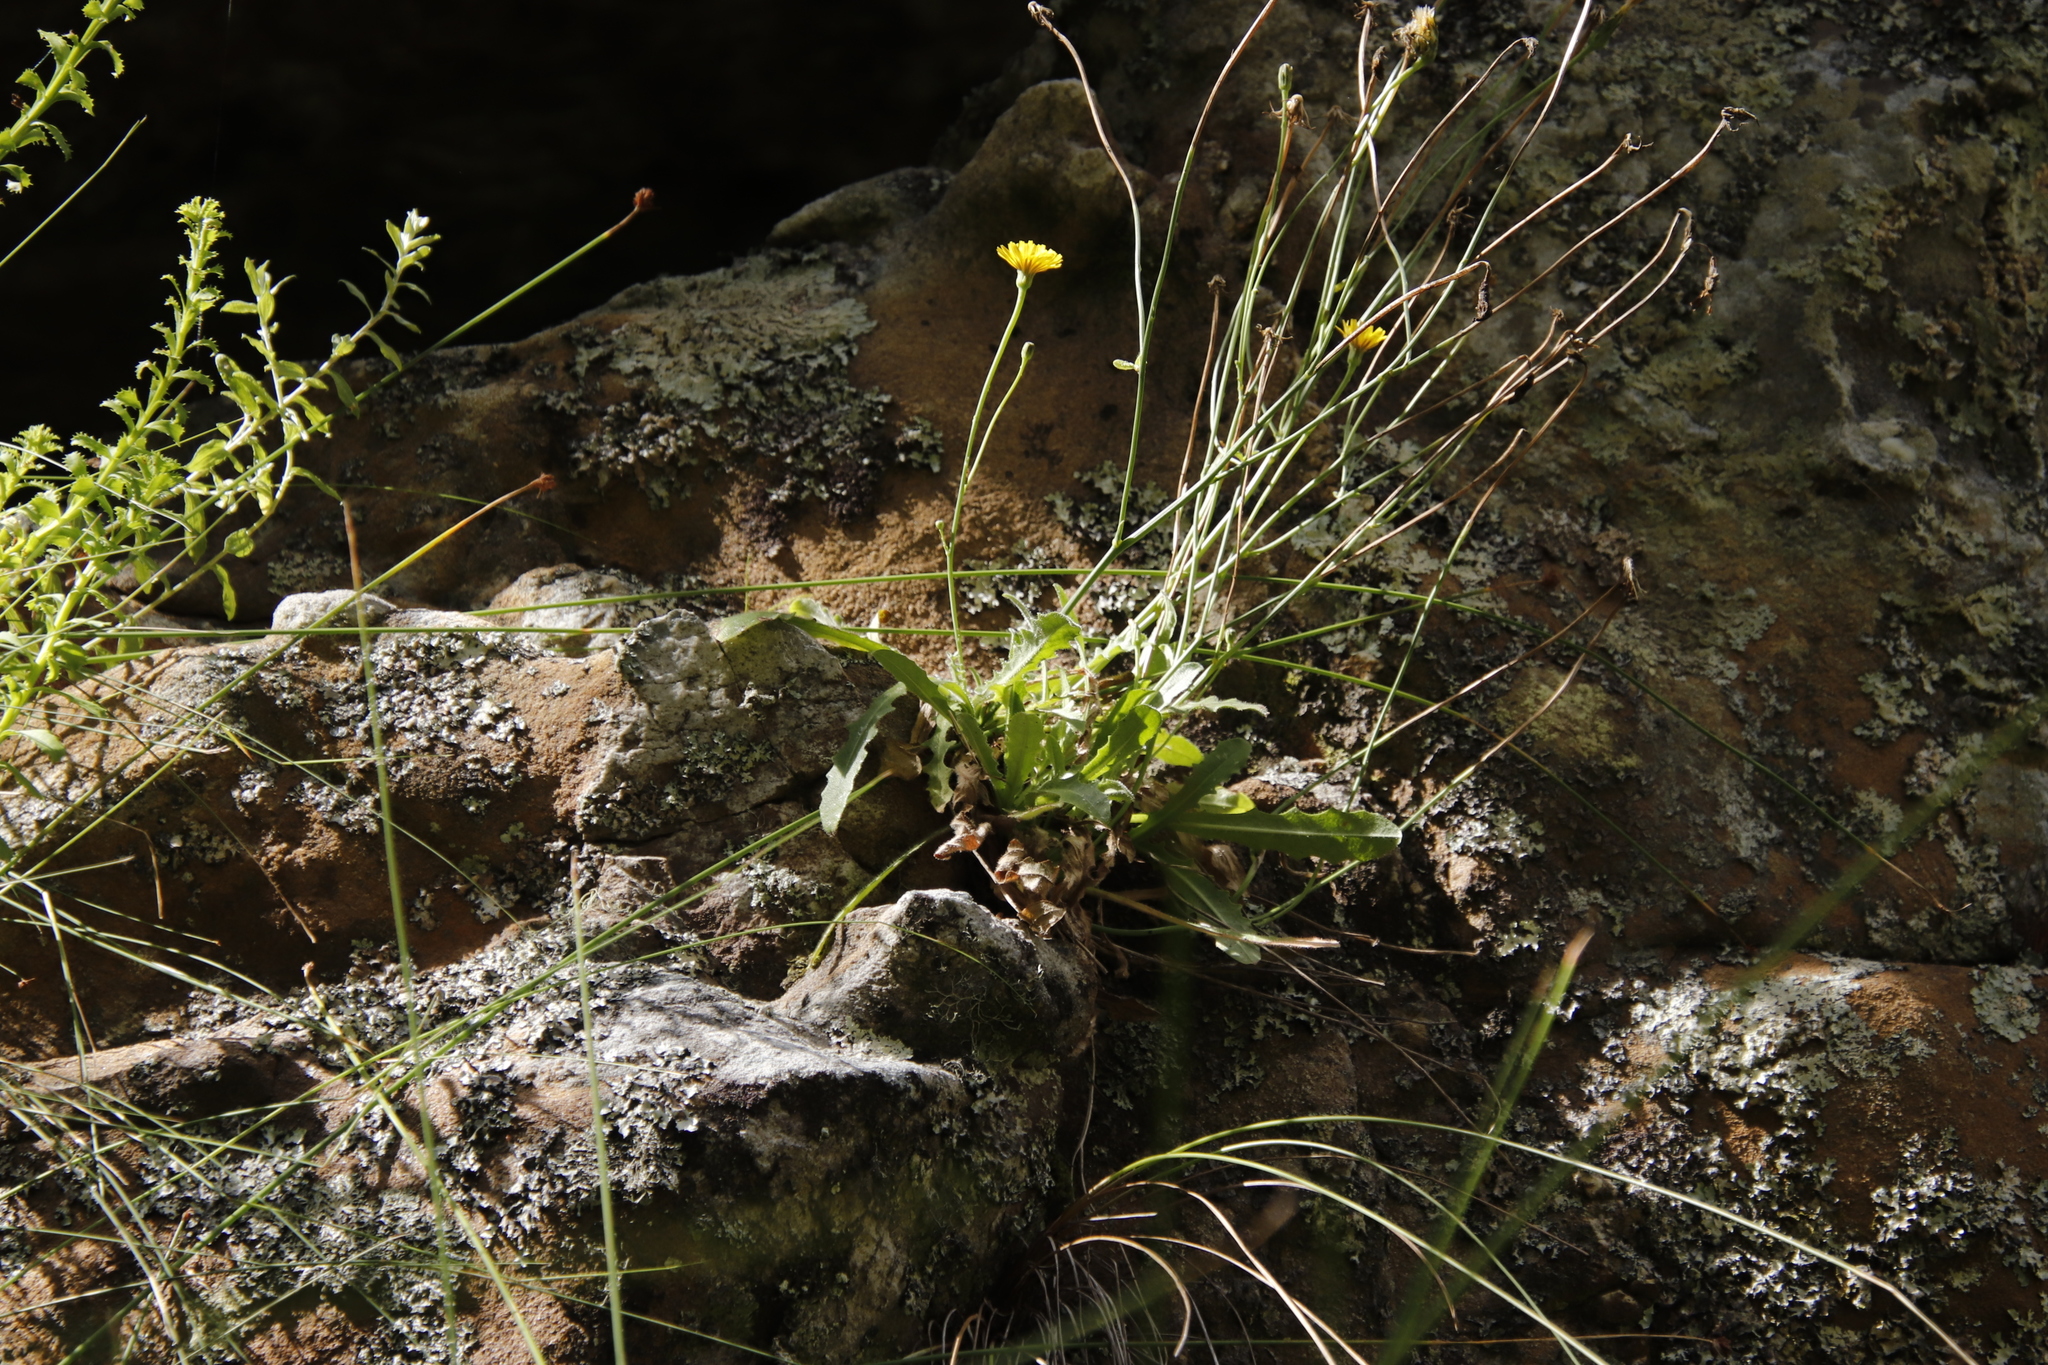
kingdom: Plantae
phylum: Tracheophyta
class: Magnoliopsida
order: Asterales
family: Asteraceae
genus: Hypochaeris
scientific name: Hypochaeris radicata
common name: Flatweed
